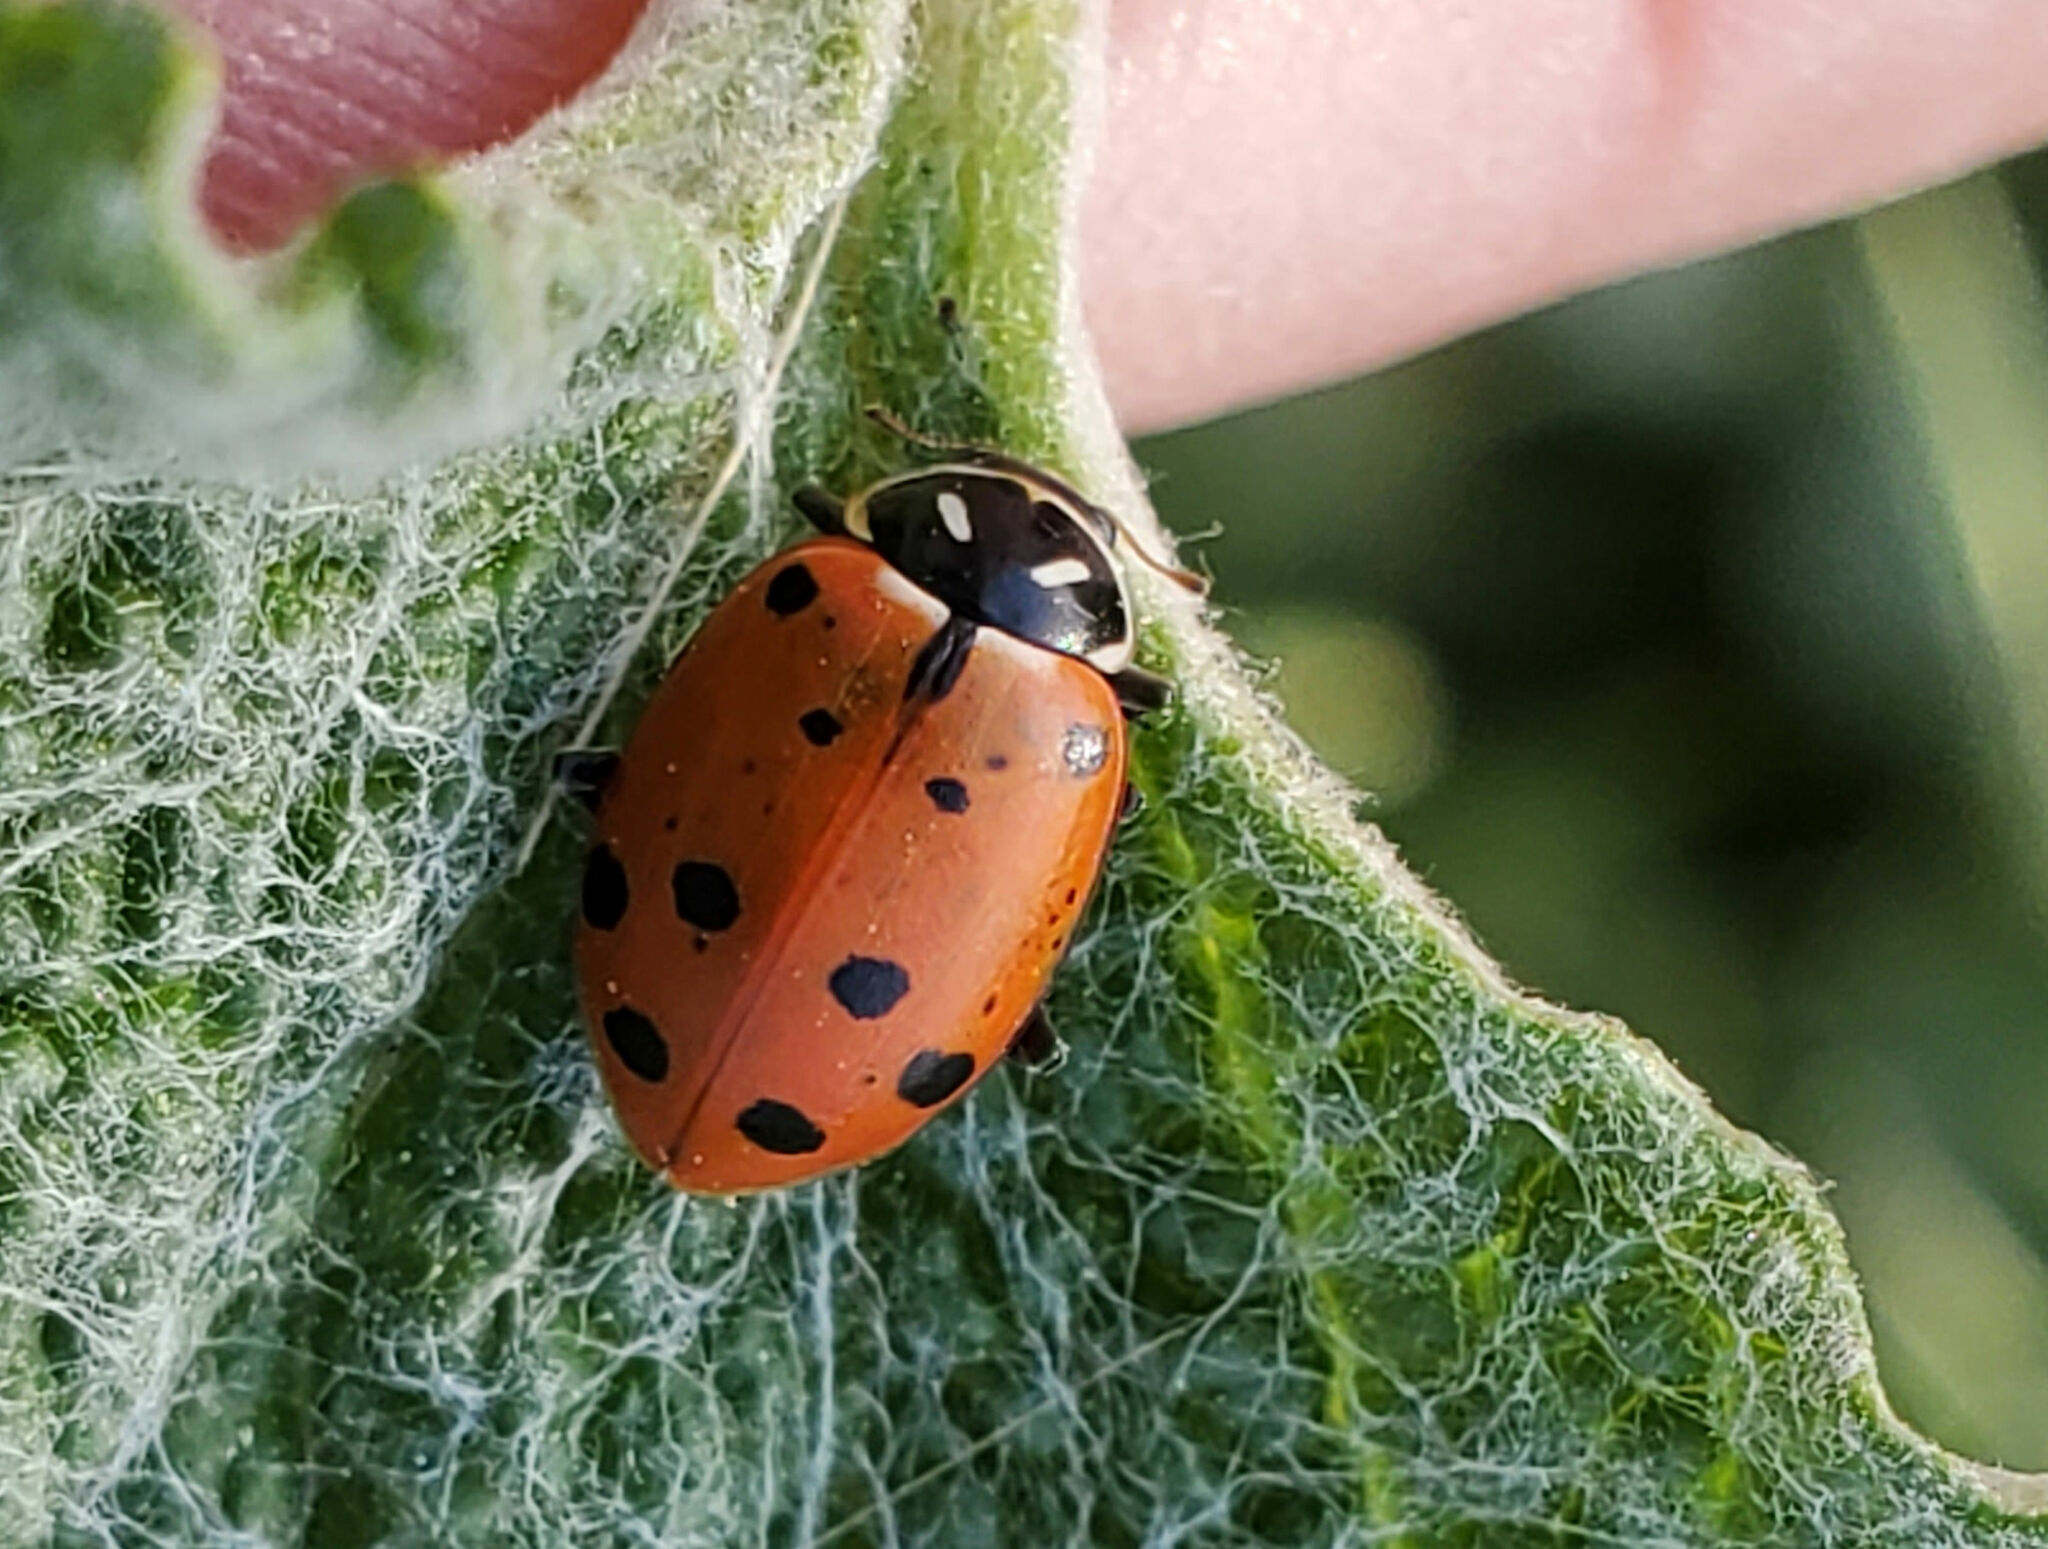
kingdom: Animalia
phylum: Arthropoda
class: Insecta
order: Coleoptera
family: Coccinellidae
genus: Hippodamia
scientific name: Hippodamia convergens
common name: Convergent lady beetle
